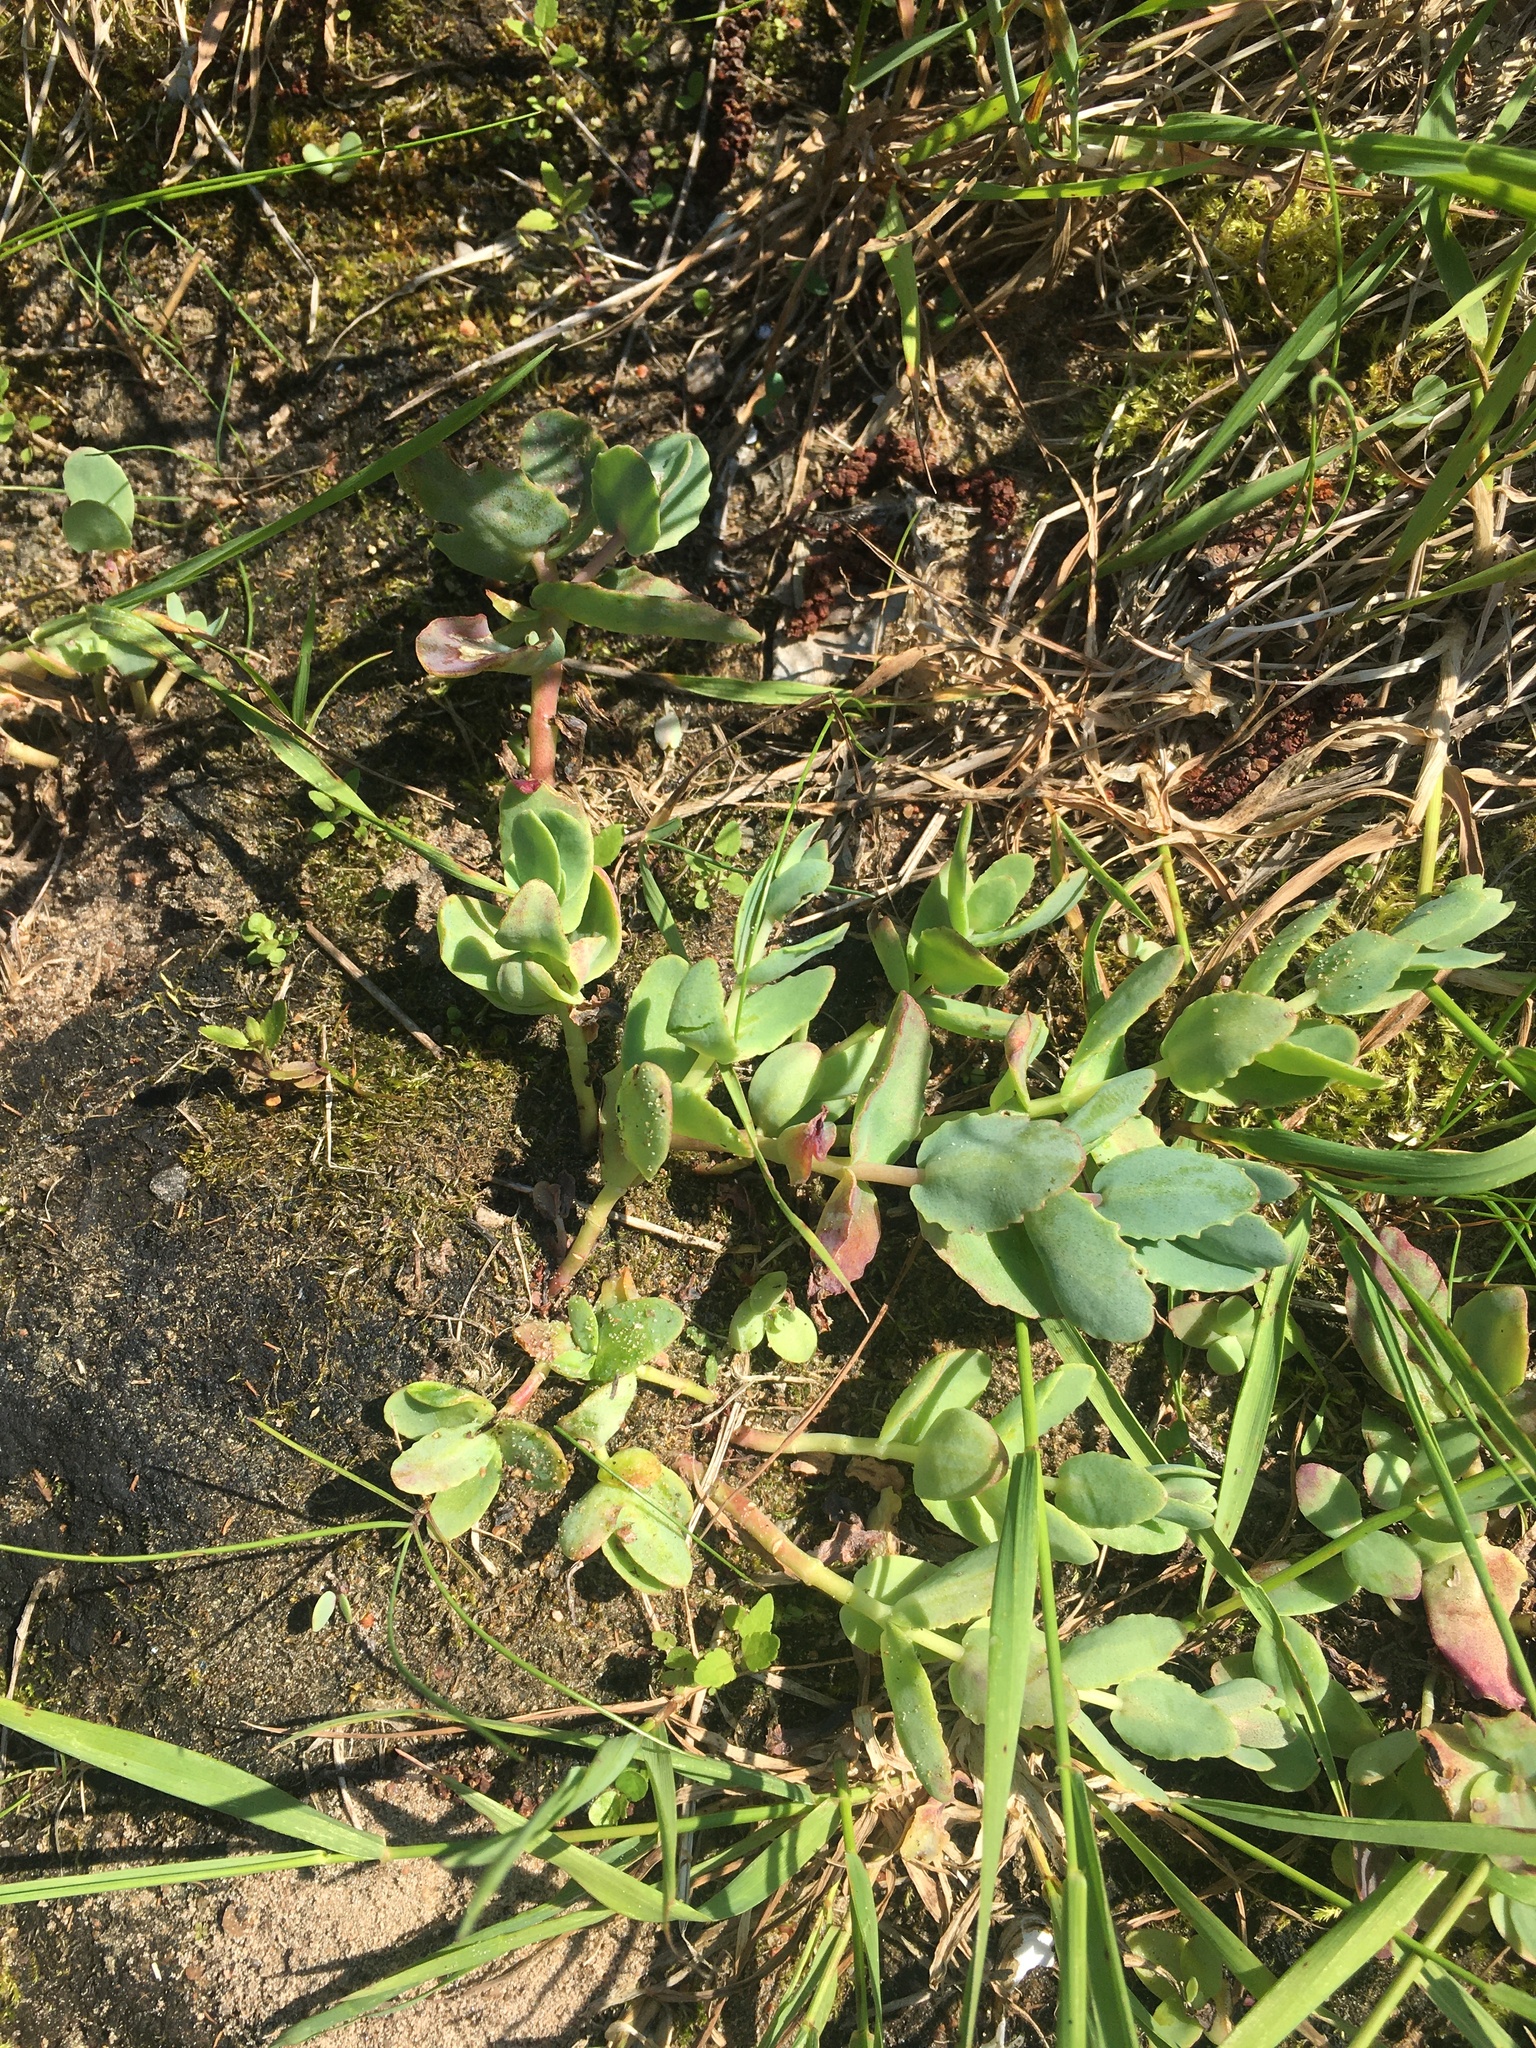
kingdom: Plantae
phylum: Tracheophyta
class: Magnoliopsida
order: Saxifragales
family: Crassulaceae
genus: Hylotelephium
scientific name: Hylotelephium maximum
